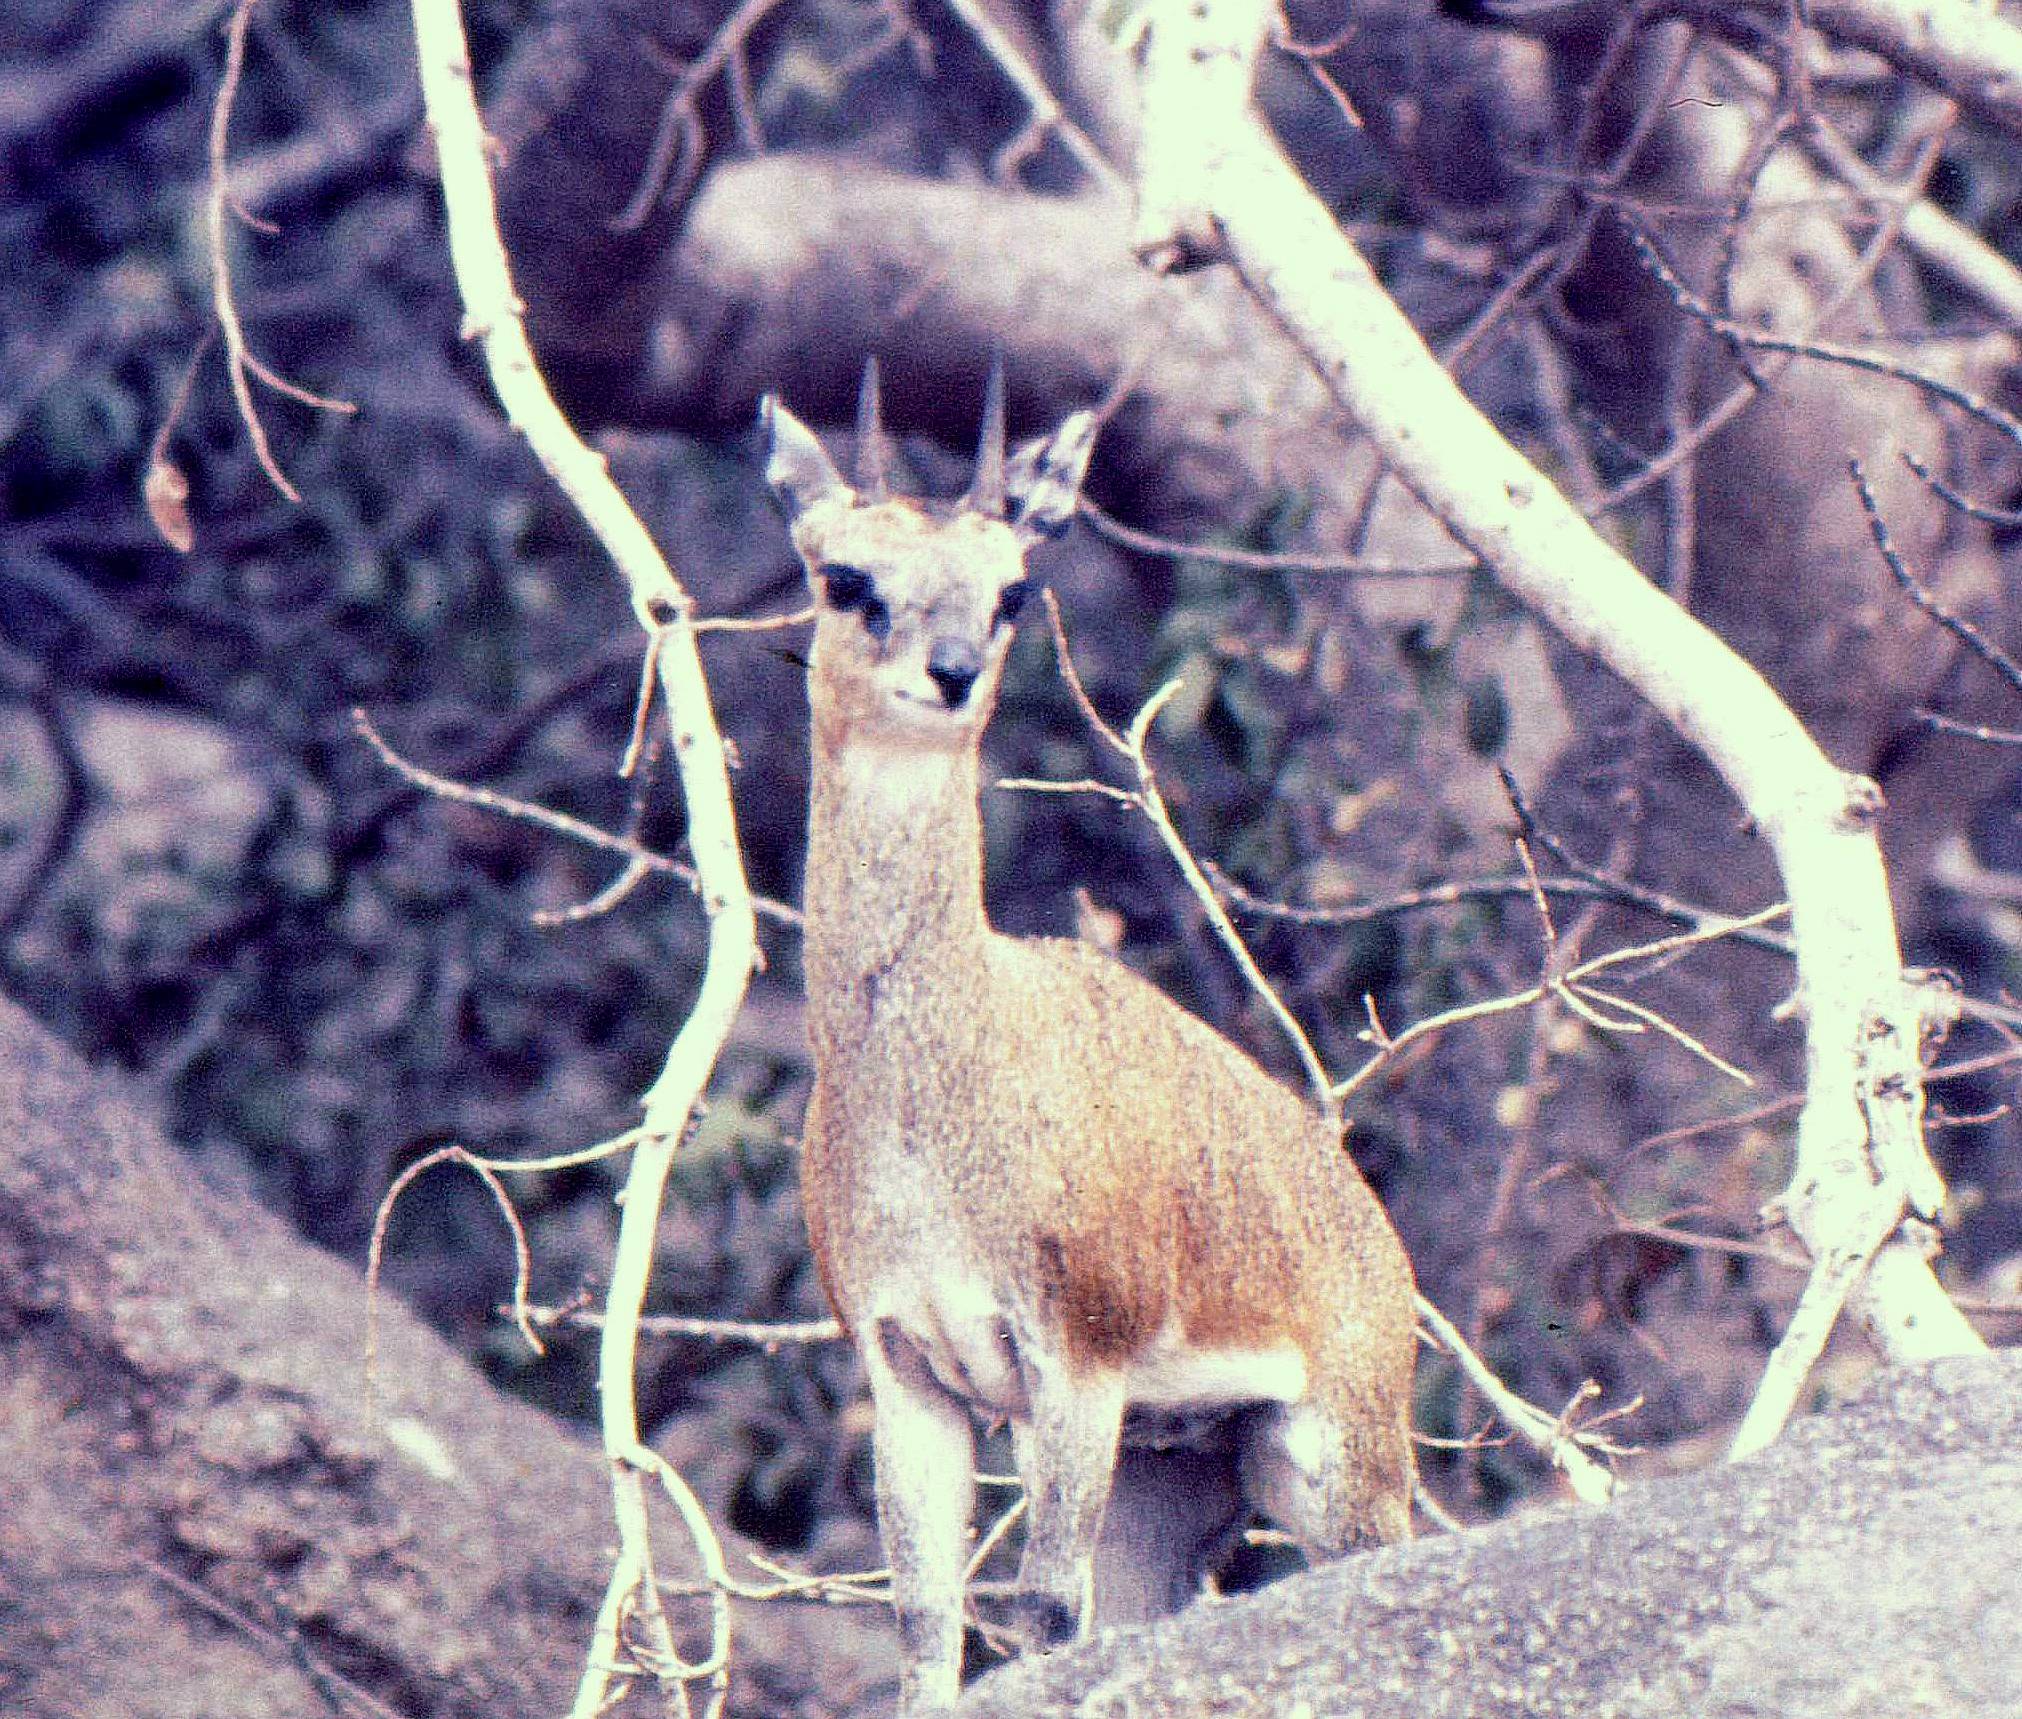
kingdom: Animalia
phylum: Chordata
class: Mammalia
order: Artiodactyla
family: Bovidae
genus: Oreotragus
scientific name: Oreotragus oreotragus
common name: Klipspringer
